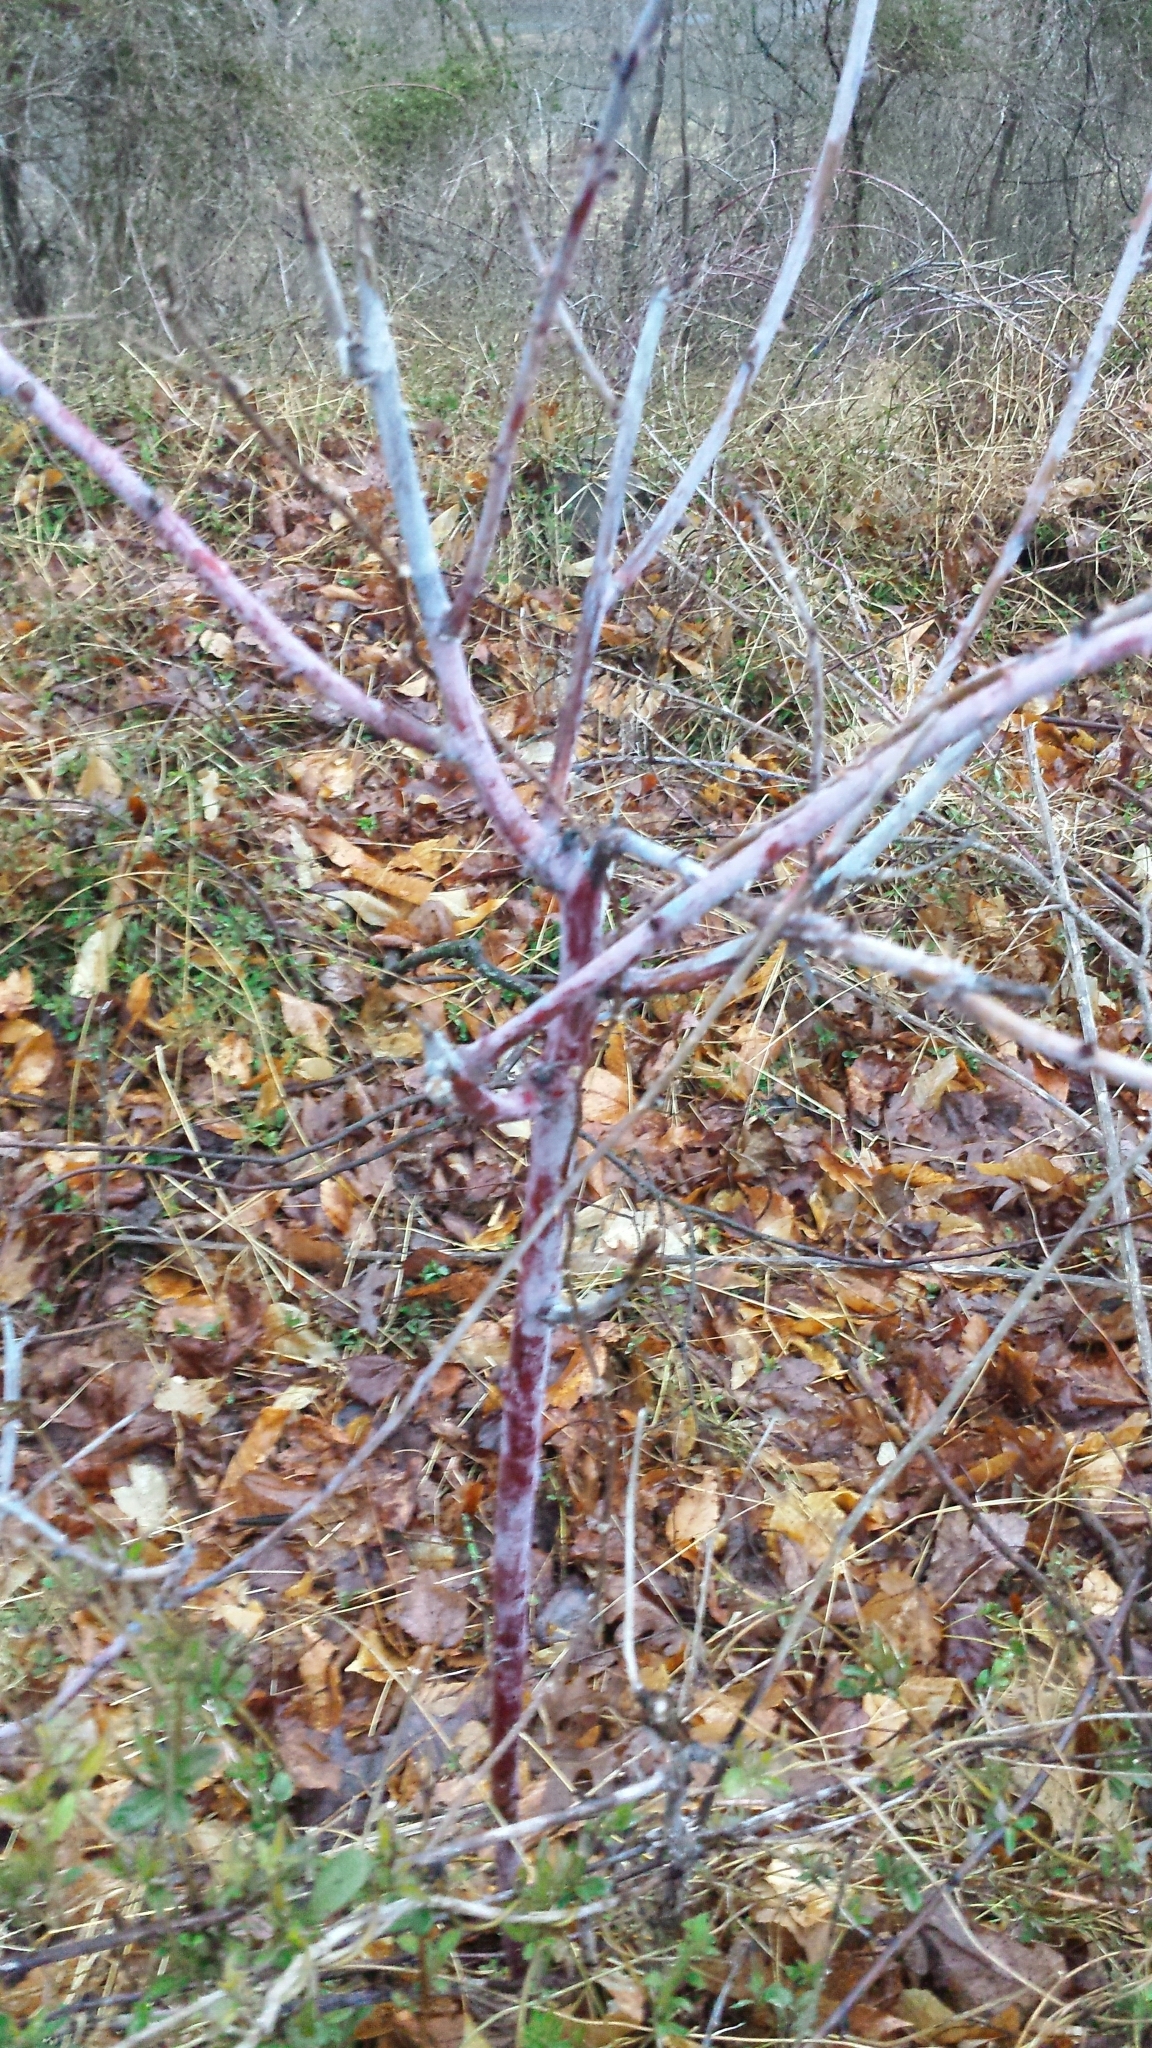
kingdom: Plantae
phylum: Tracheophyta
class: Magnoliopsida
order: Rosales
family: Rosaceae
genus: Rubus
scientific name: Rubus occidentalis
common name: Black raspberry
